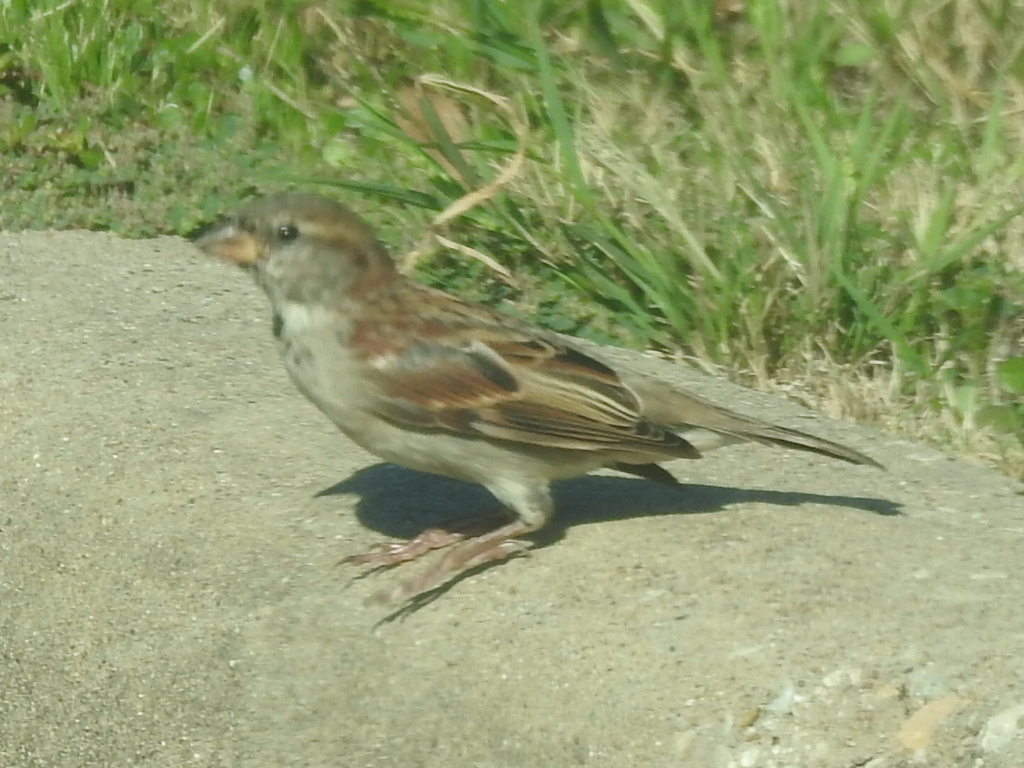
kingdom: Animalia
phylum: Chordata
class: Aves
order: Passeriformes
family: Passeridae
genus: Passer
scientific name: Passer domesticus
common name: House sparrow
